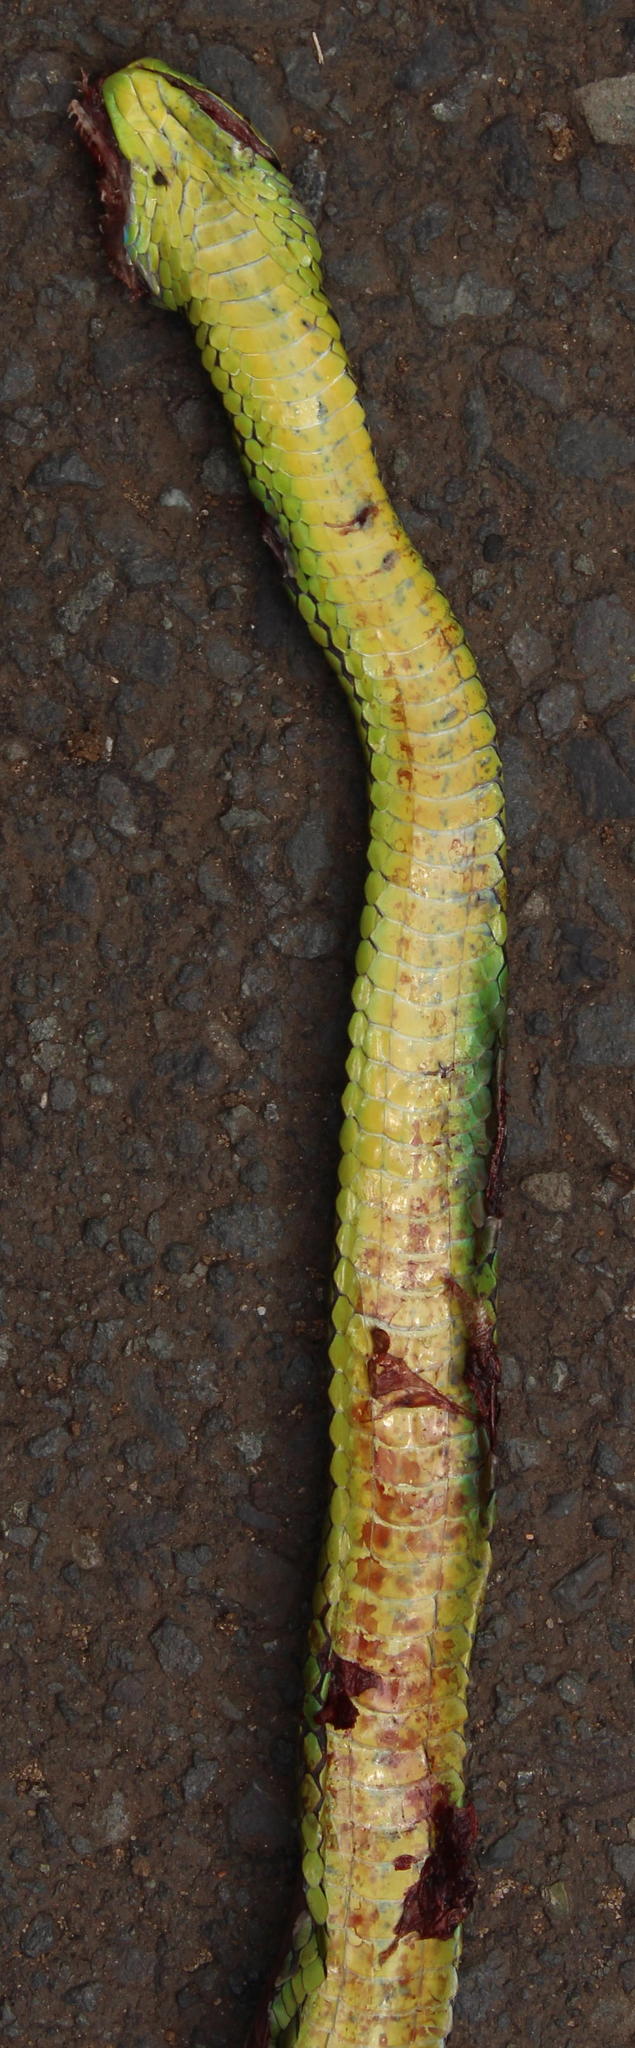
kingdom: Animalia
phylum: Chordata
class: Squamata
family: Colubridae
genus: Philothamnus
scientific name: Philothamnus natalensis
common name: Eastern natal green snake
